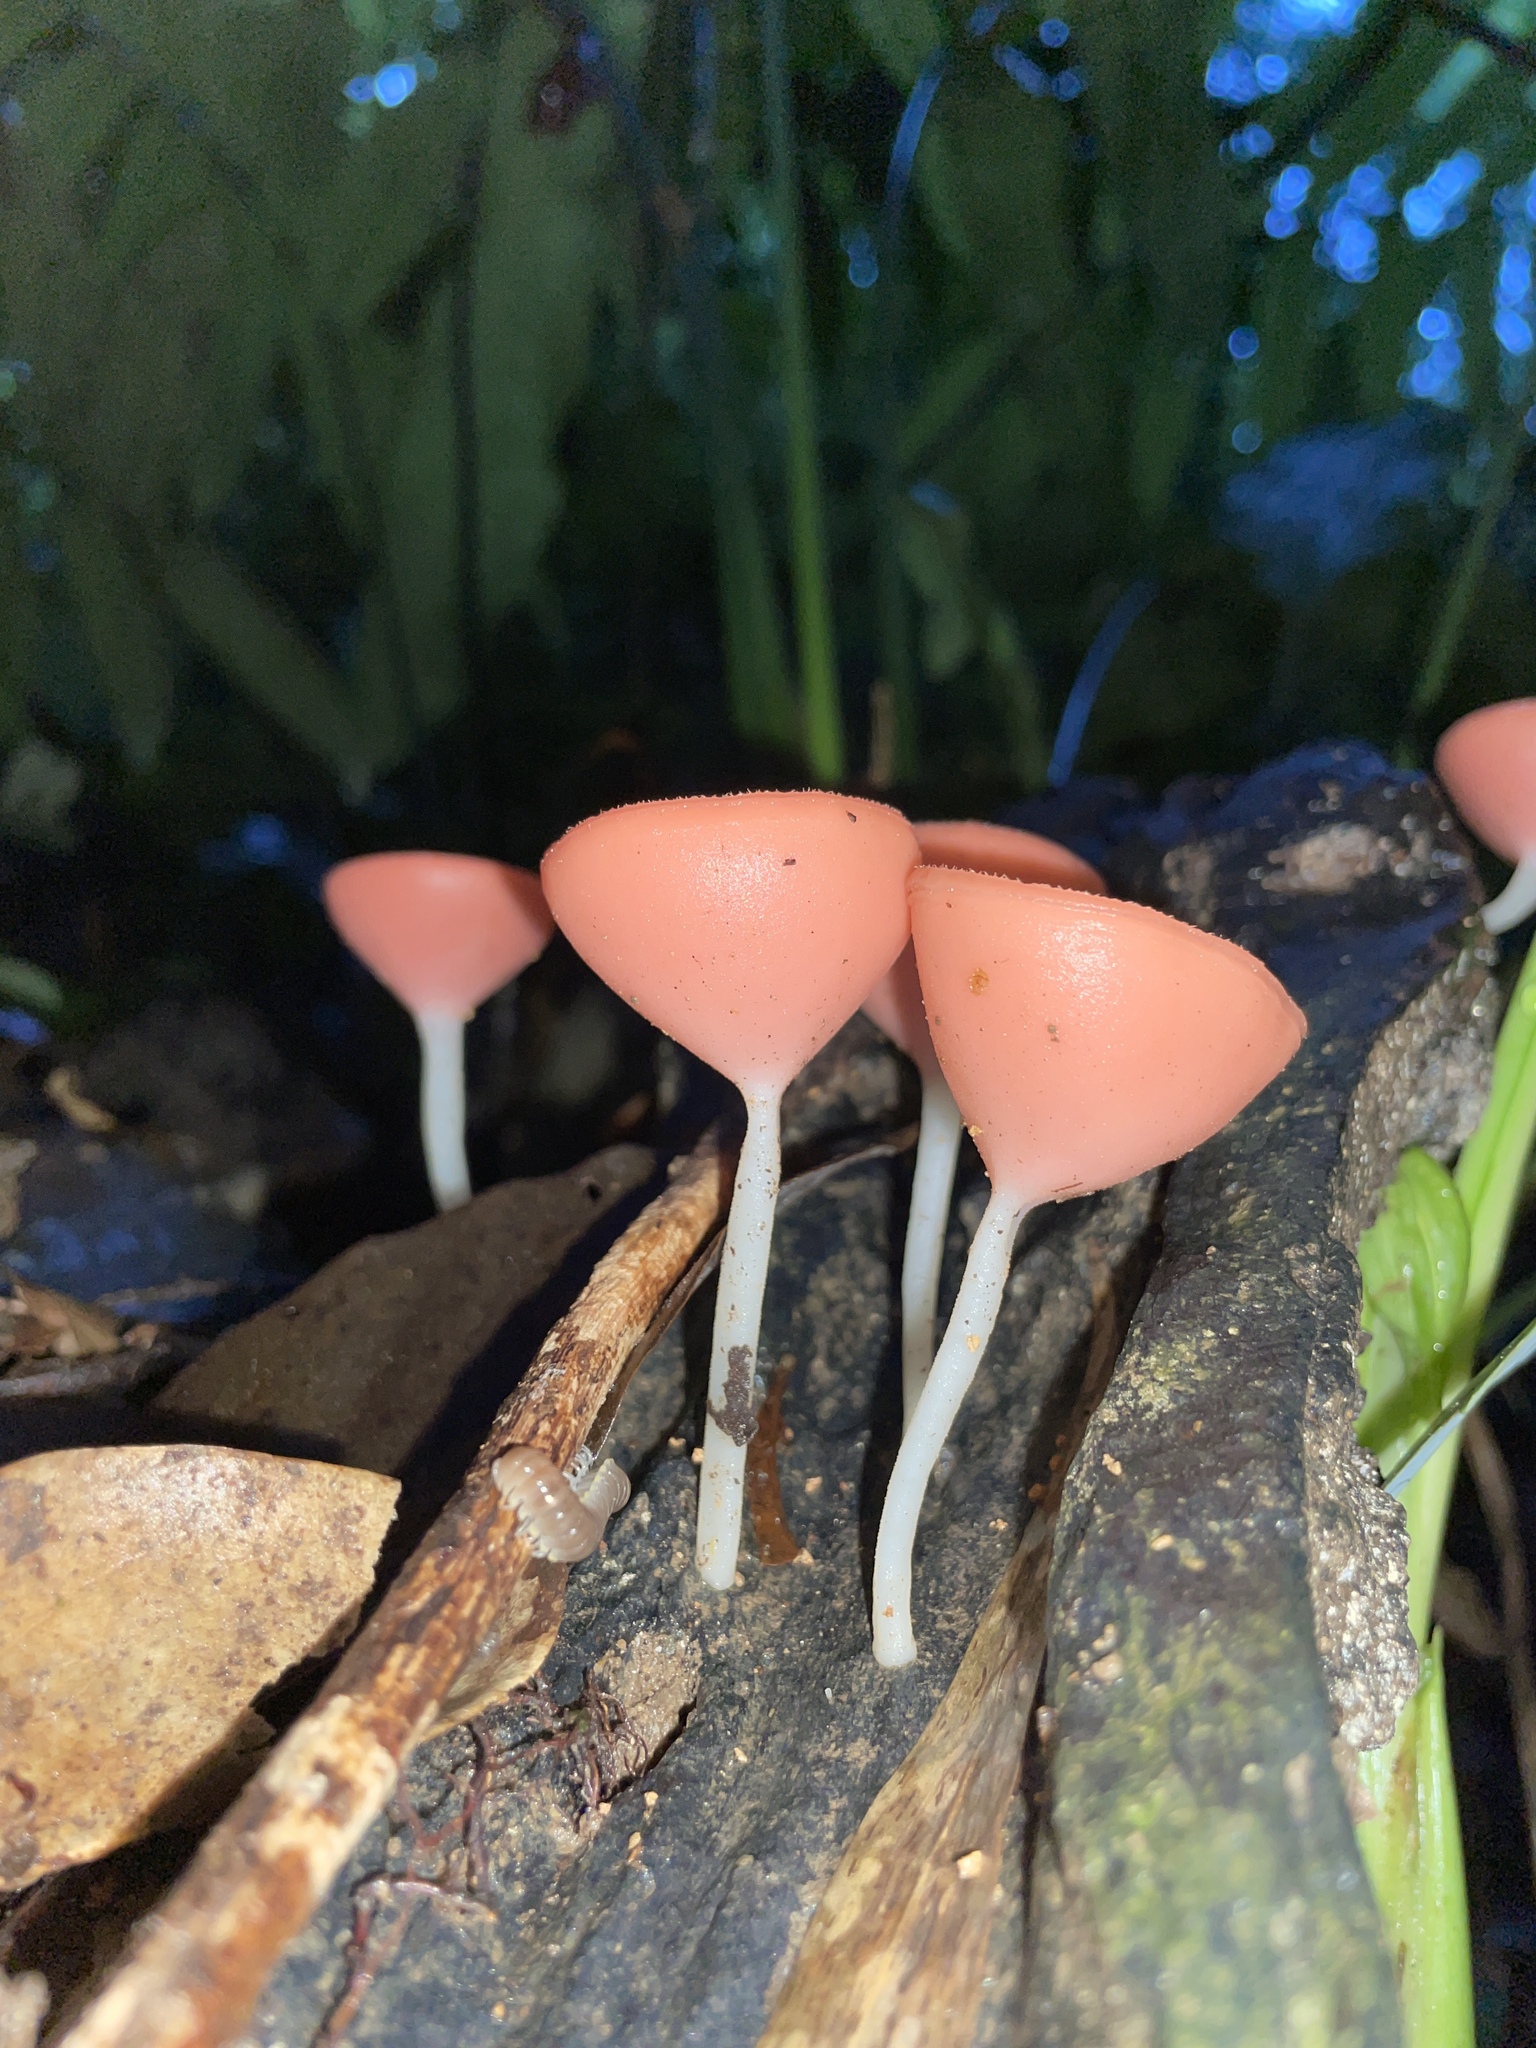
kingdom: Fungi
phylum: Ascomycota
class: Pezizomycetes
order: Pezizales
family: Sarcoscyphaceae
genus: Cookeina
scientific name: Cookeina speciosa
